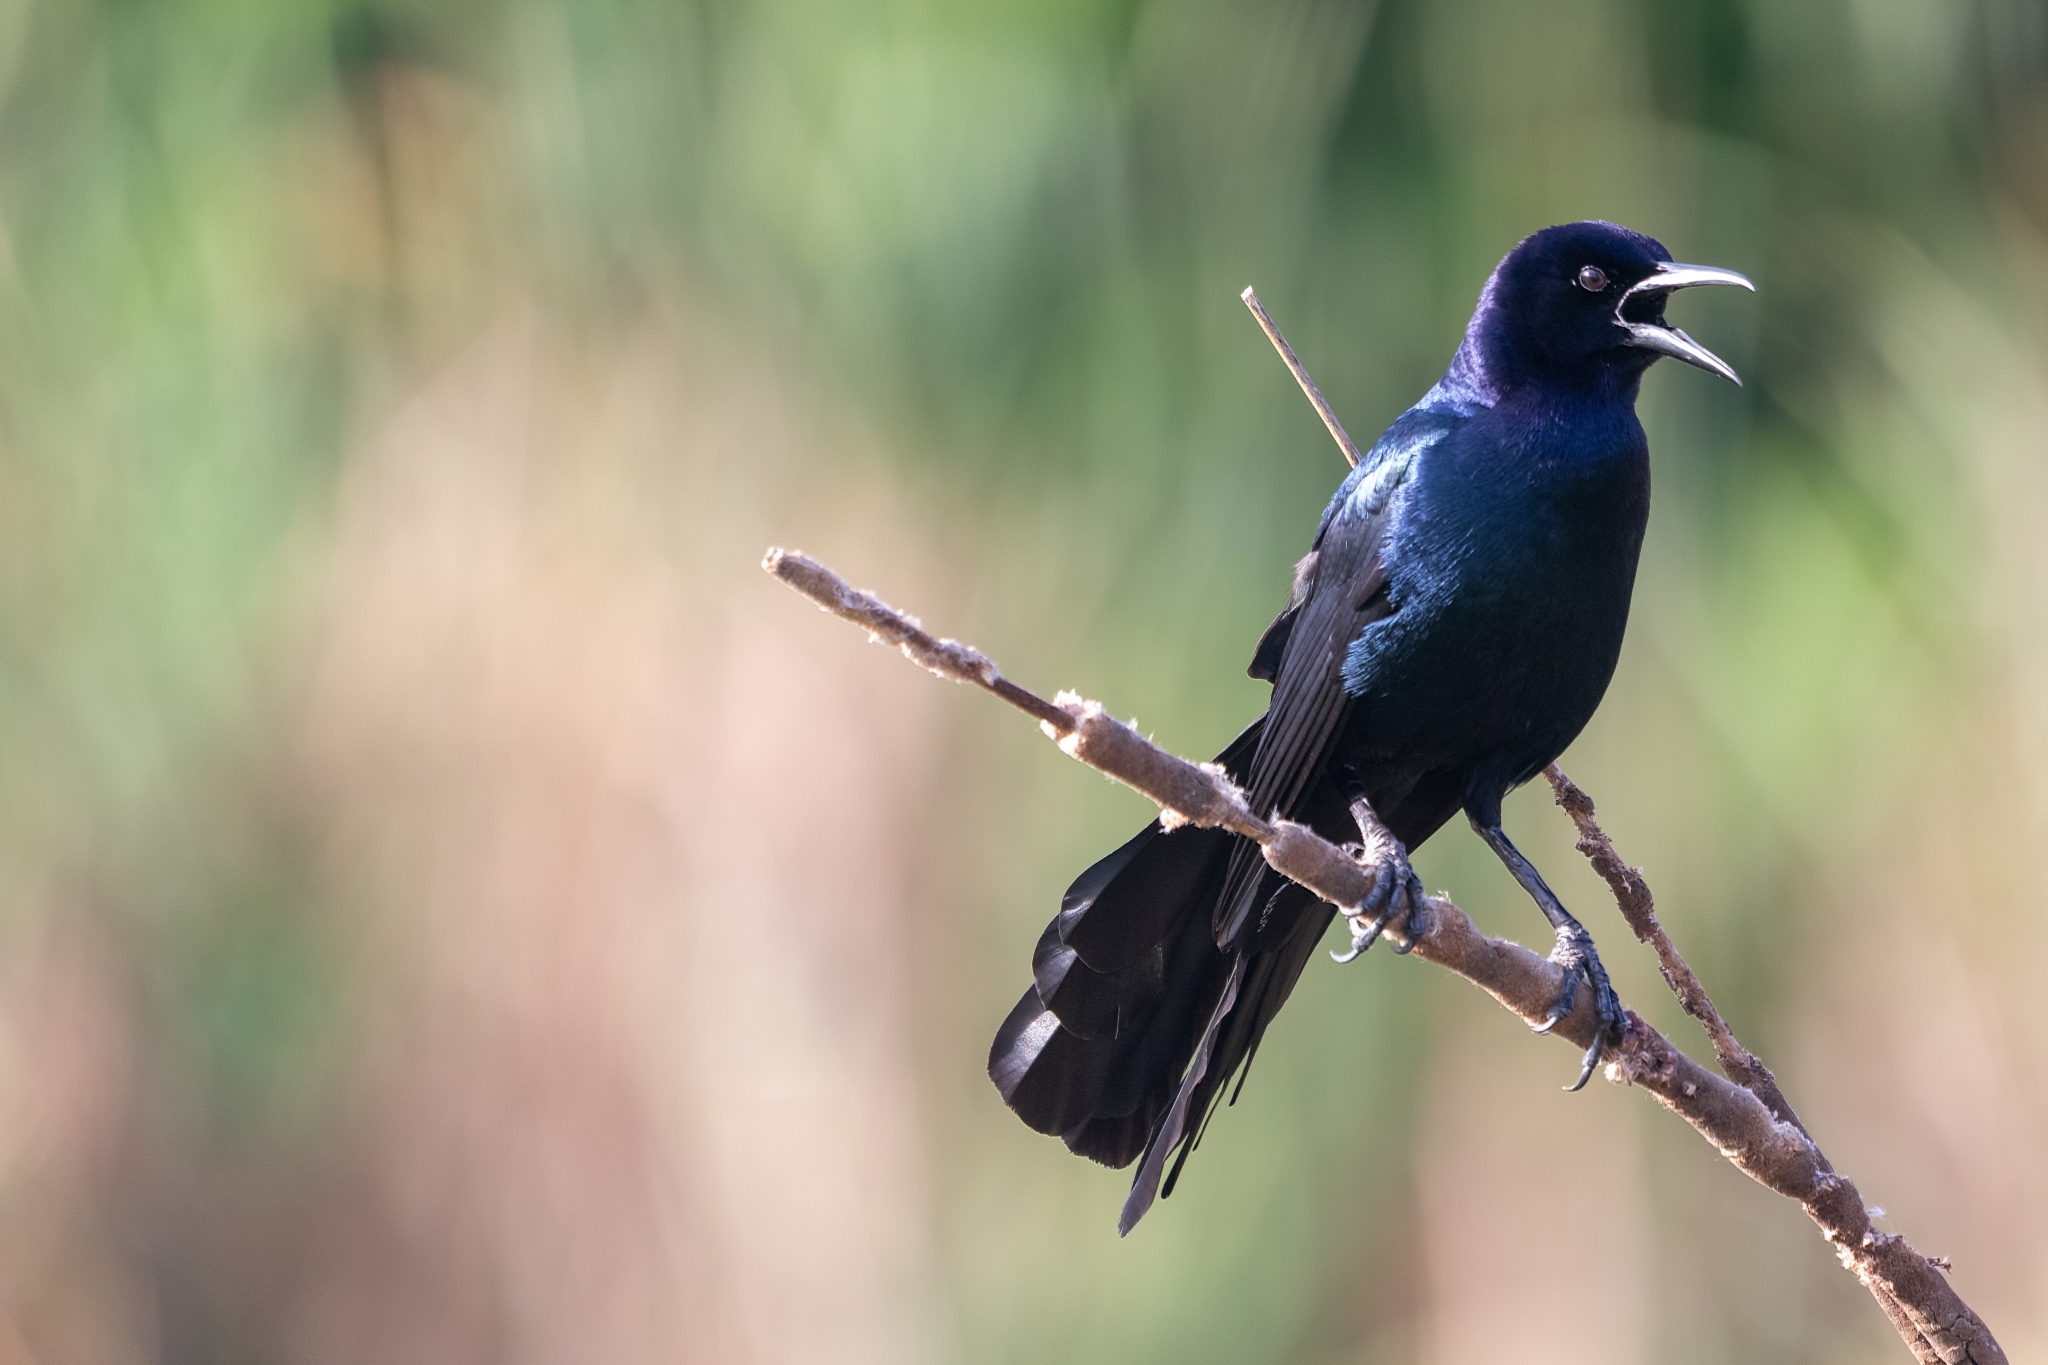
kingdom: Animalia
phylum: Chordata
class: Aves
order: Passeriformes
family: Icteridae
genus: Quiscalus
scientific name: Quiscalus major
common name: Boat-tailed grackle
